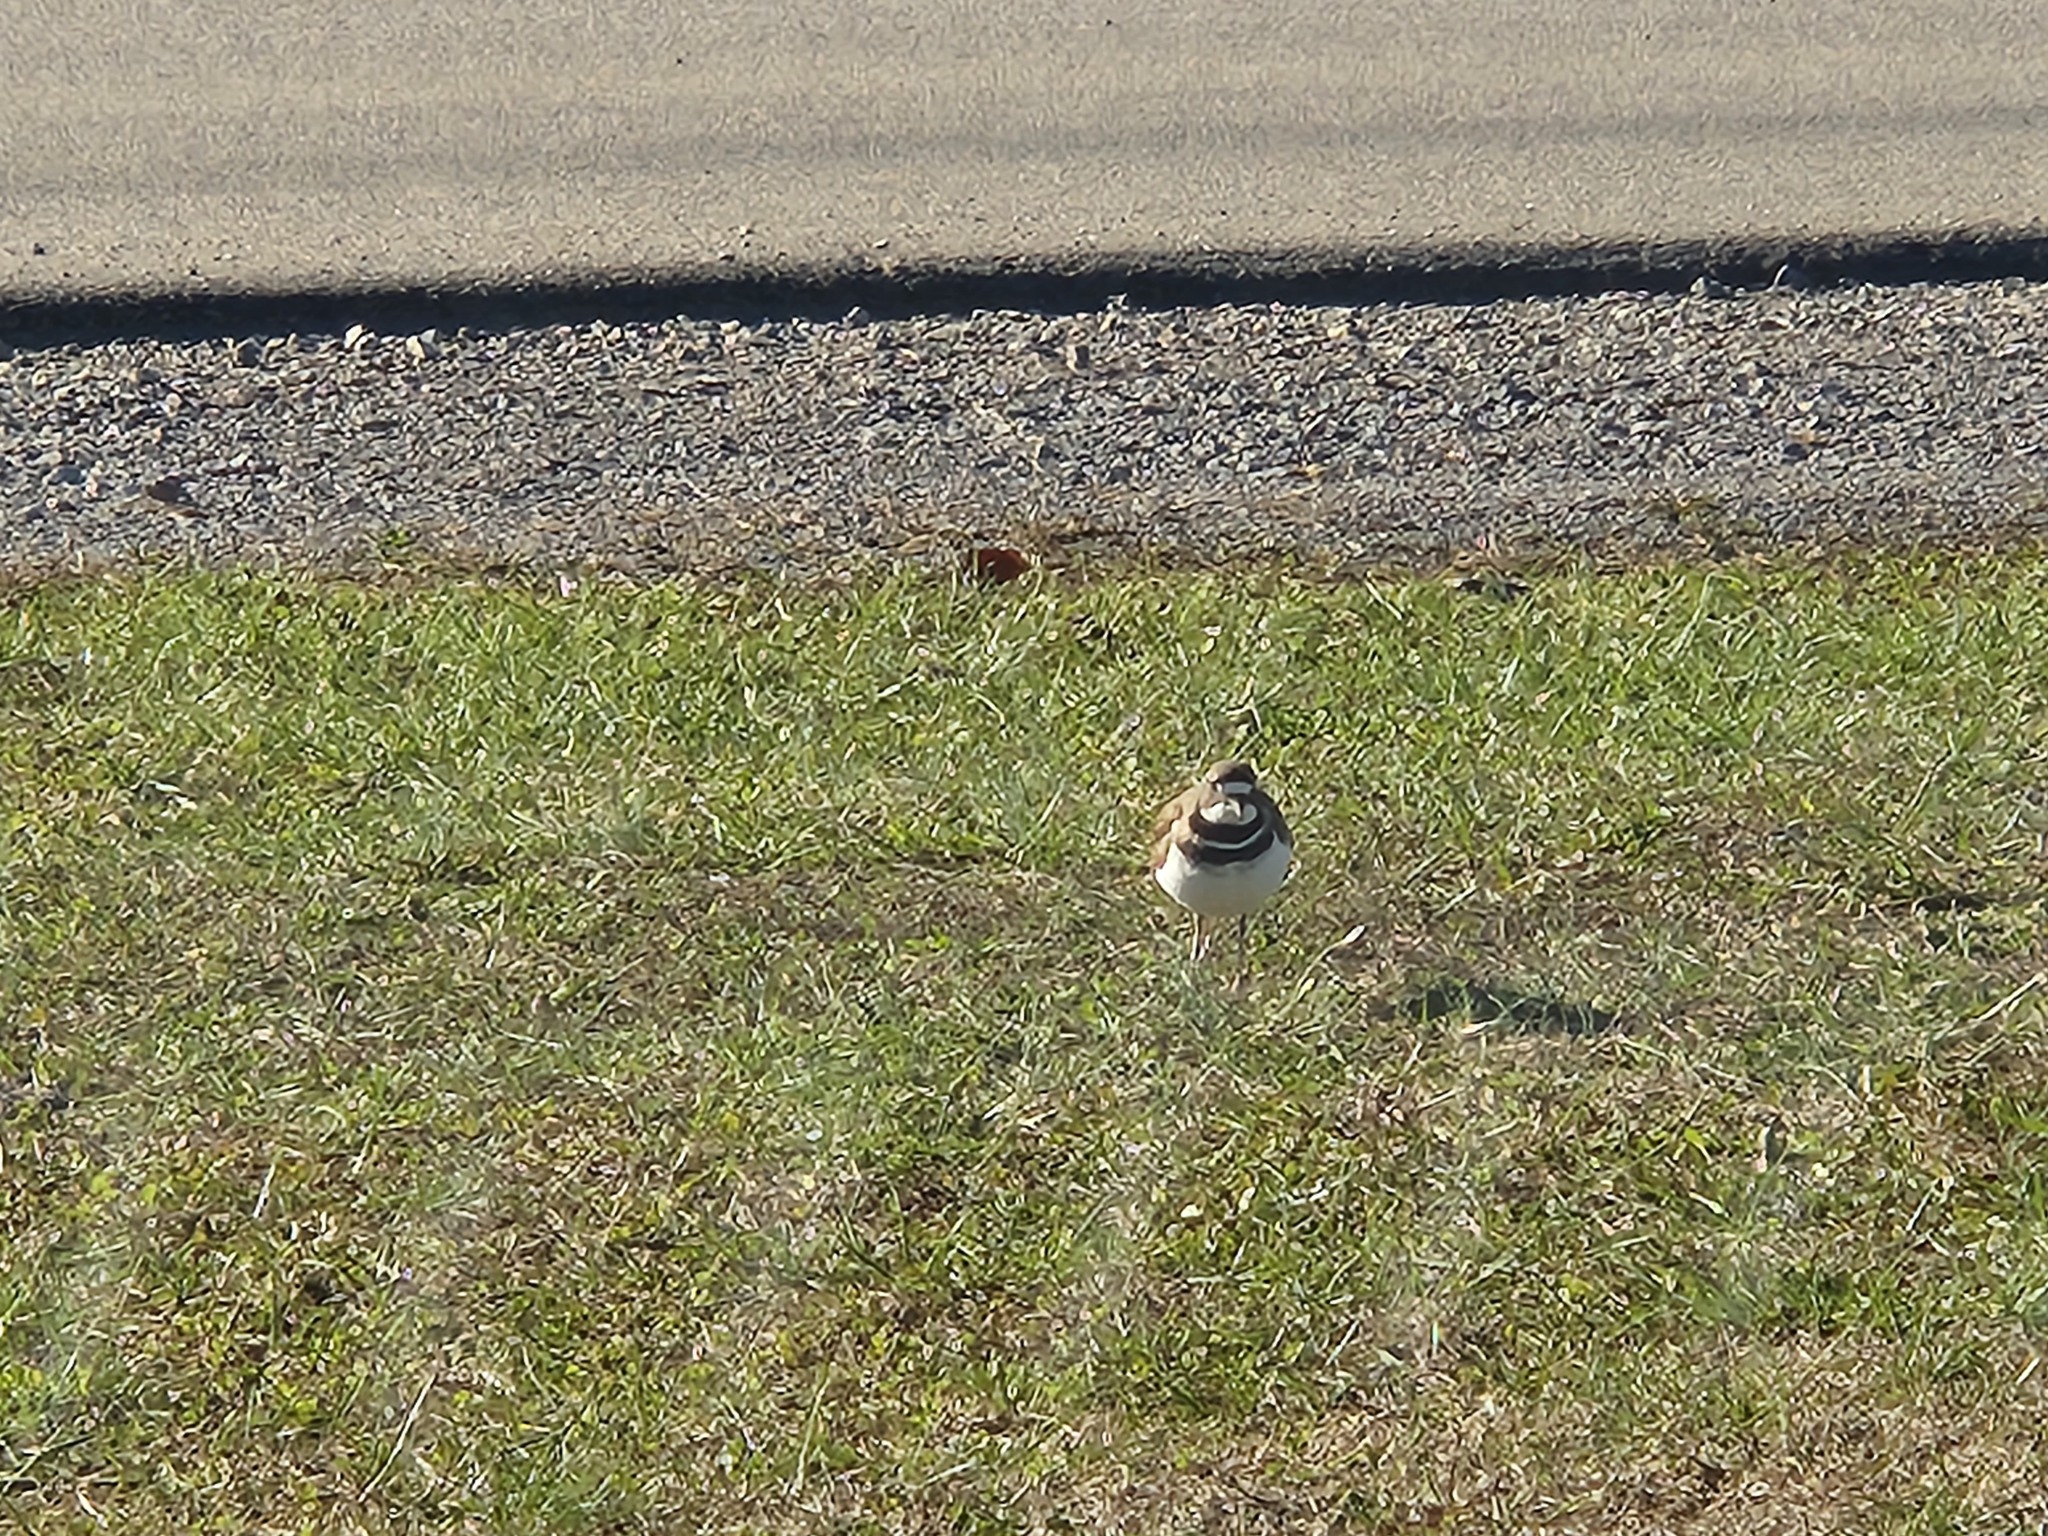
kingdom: Animalia
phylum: Chordata
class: Aves
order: Charadriiformes
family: Charadriidae
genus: Charadrius
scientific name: Charadrius vociferus
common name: Killdeer
